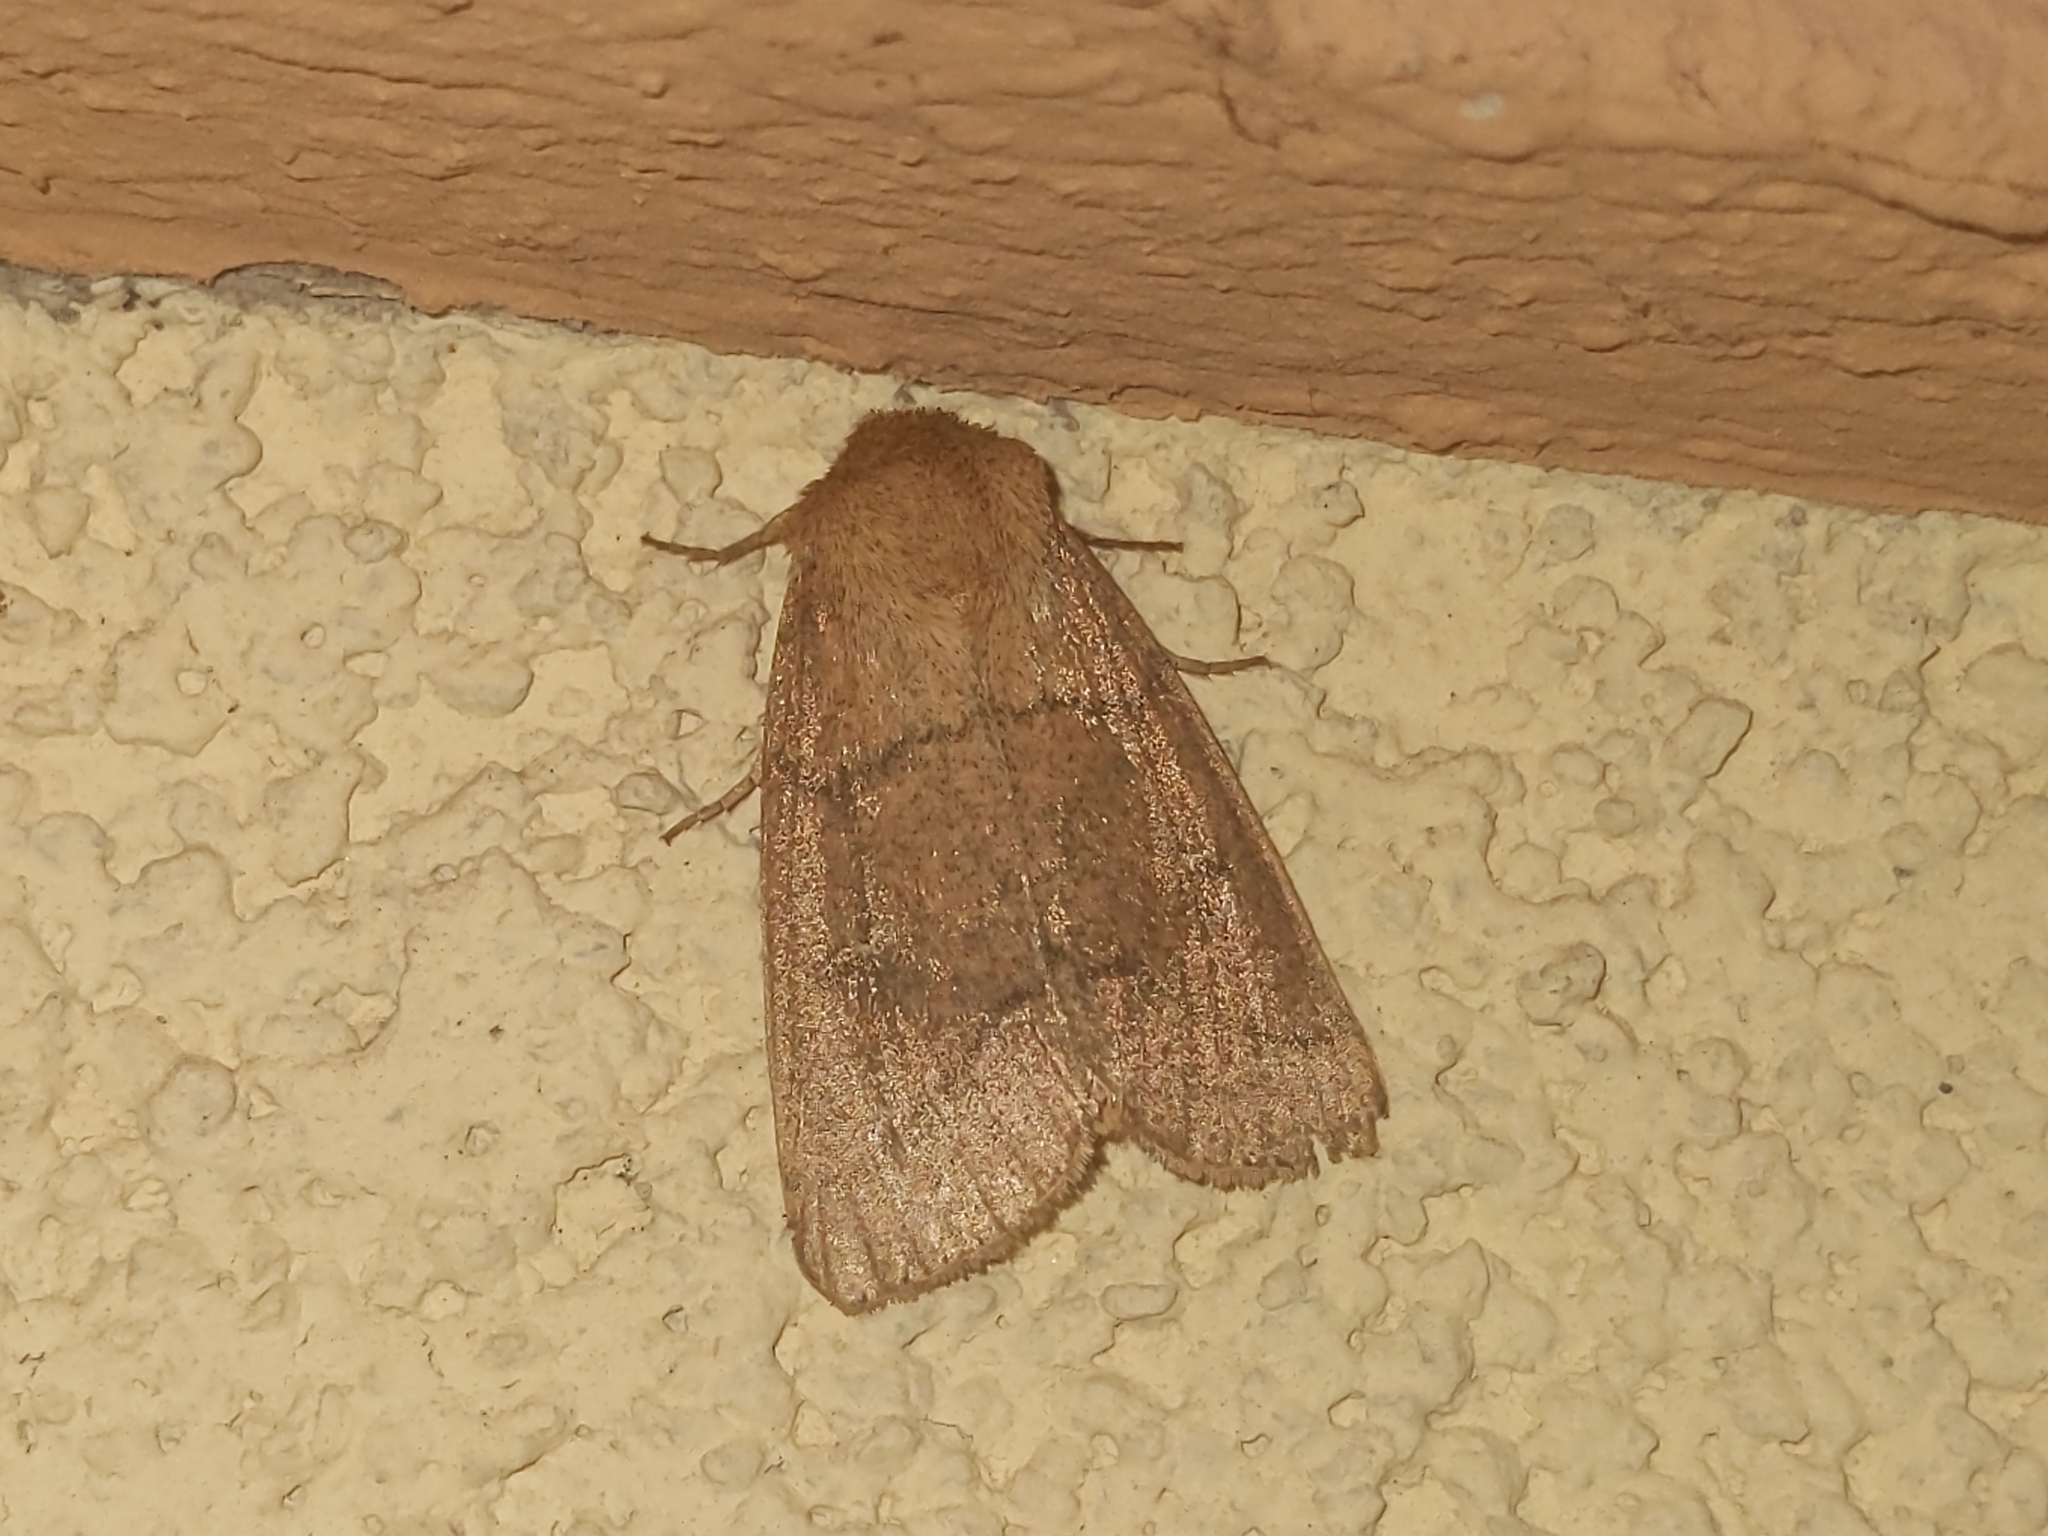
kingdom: Animalia
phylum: Arthropoda
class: Insecta
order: Lepidoptera
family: Noctuidae
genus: Mythimna
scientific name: Mythimna turca
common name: Double line
